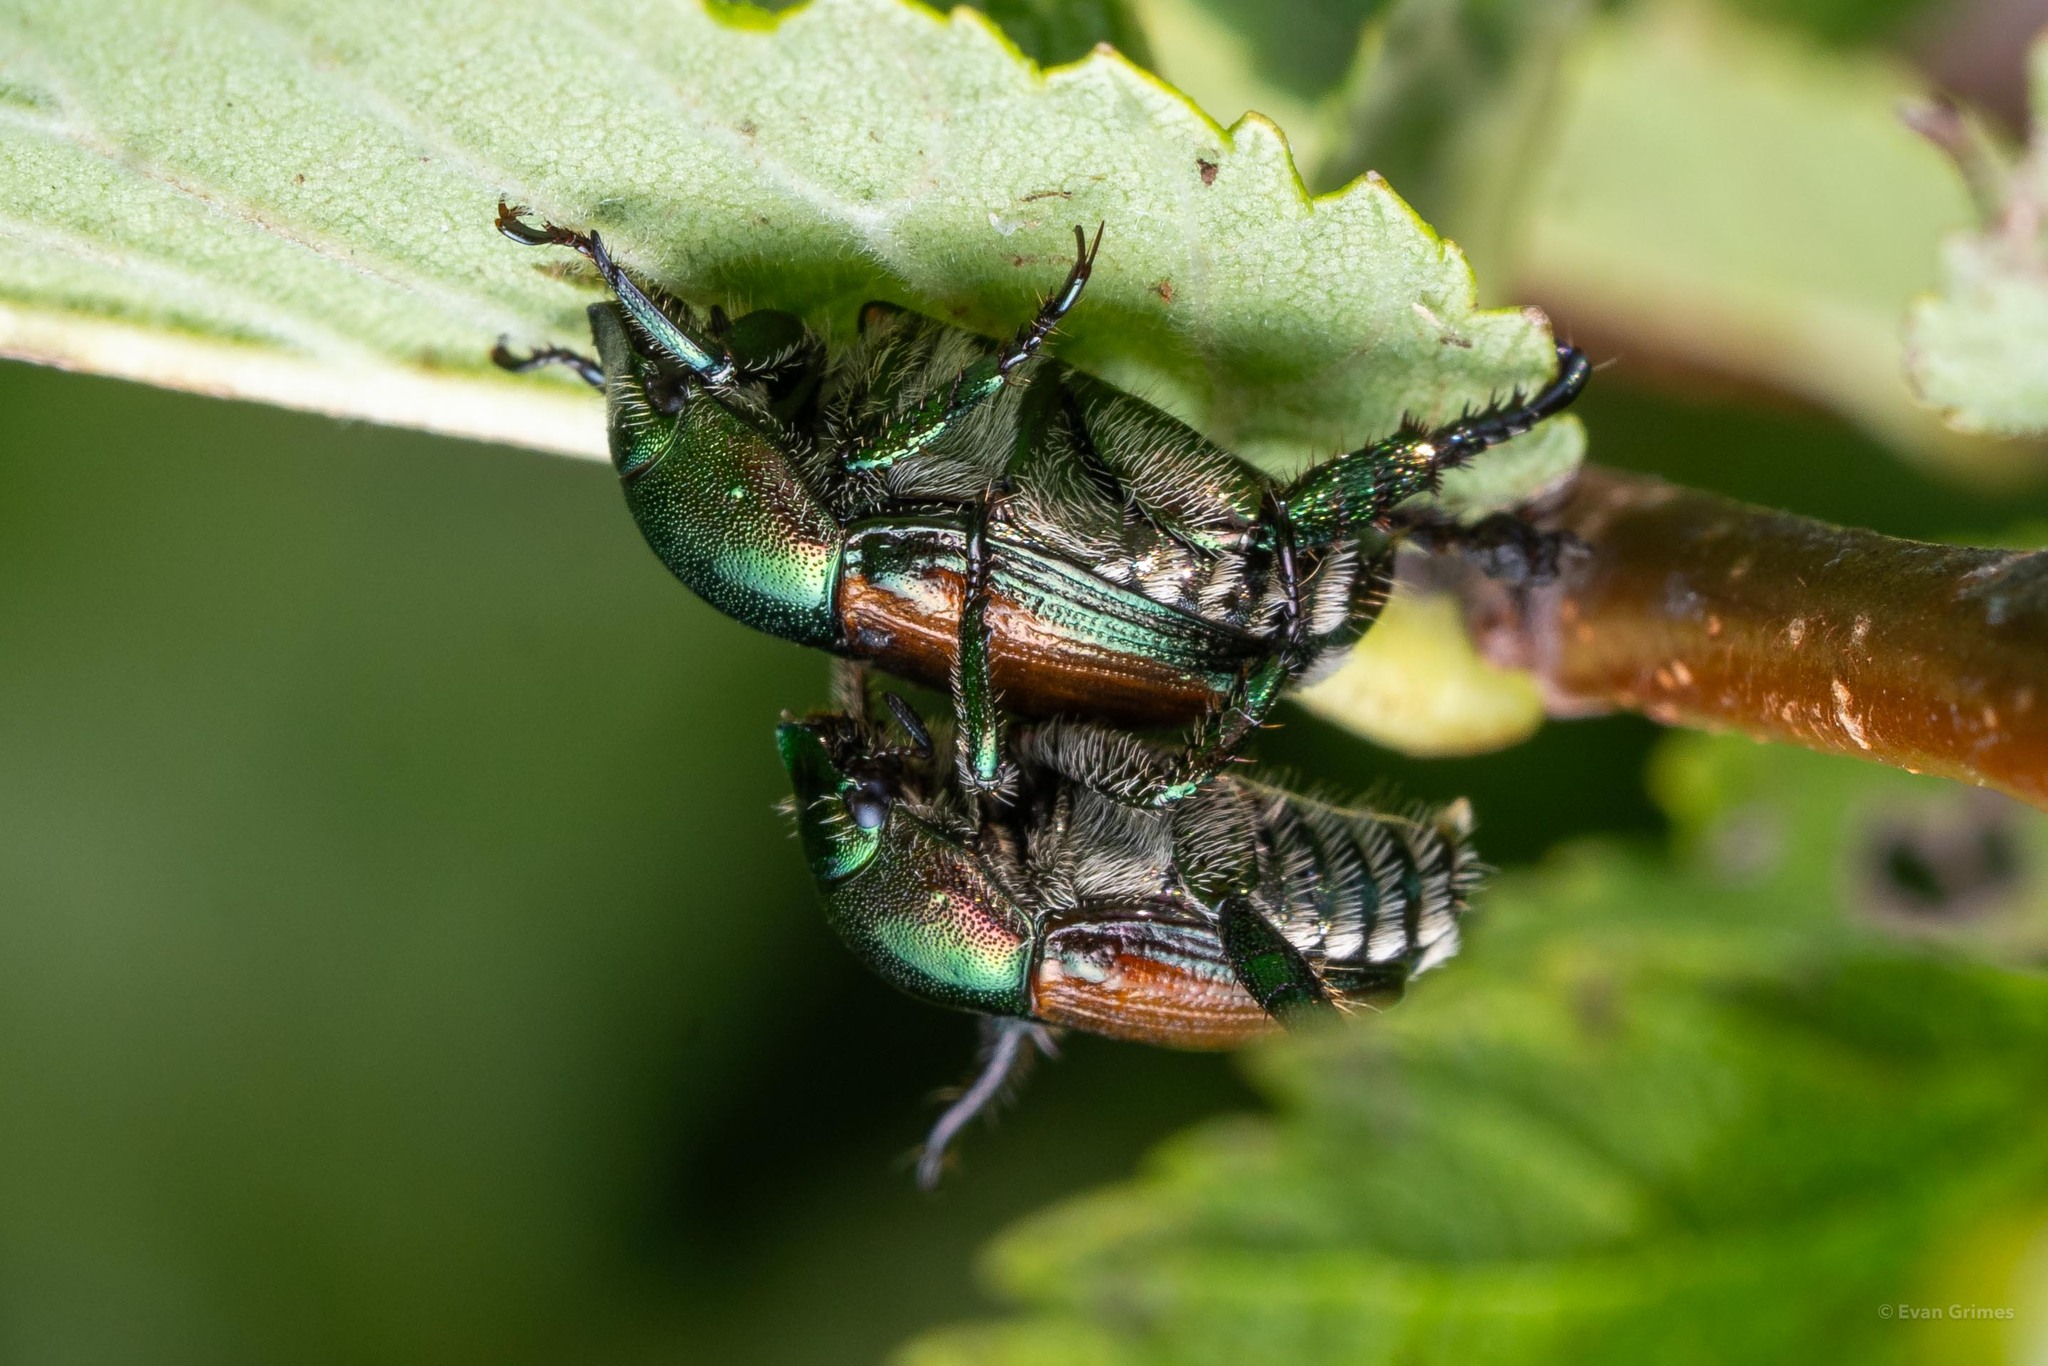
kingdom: Animalia
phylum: Arthropoda
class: Insecta
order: Coleoptera
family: Scarabaeidae
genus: Popillia
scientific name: Popillia japonica
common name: Japanese beetle
